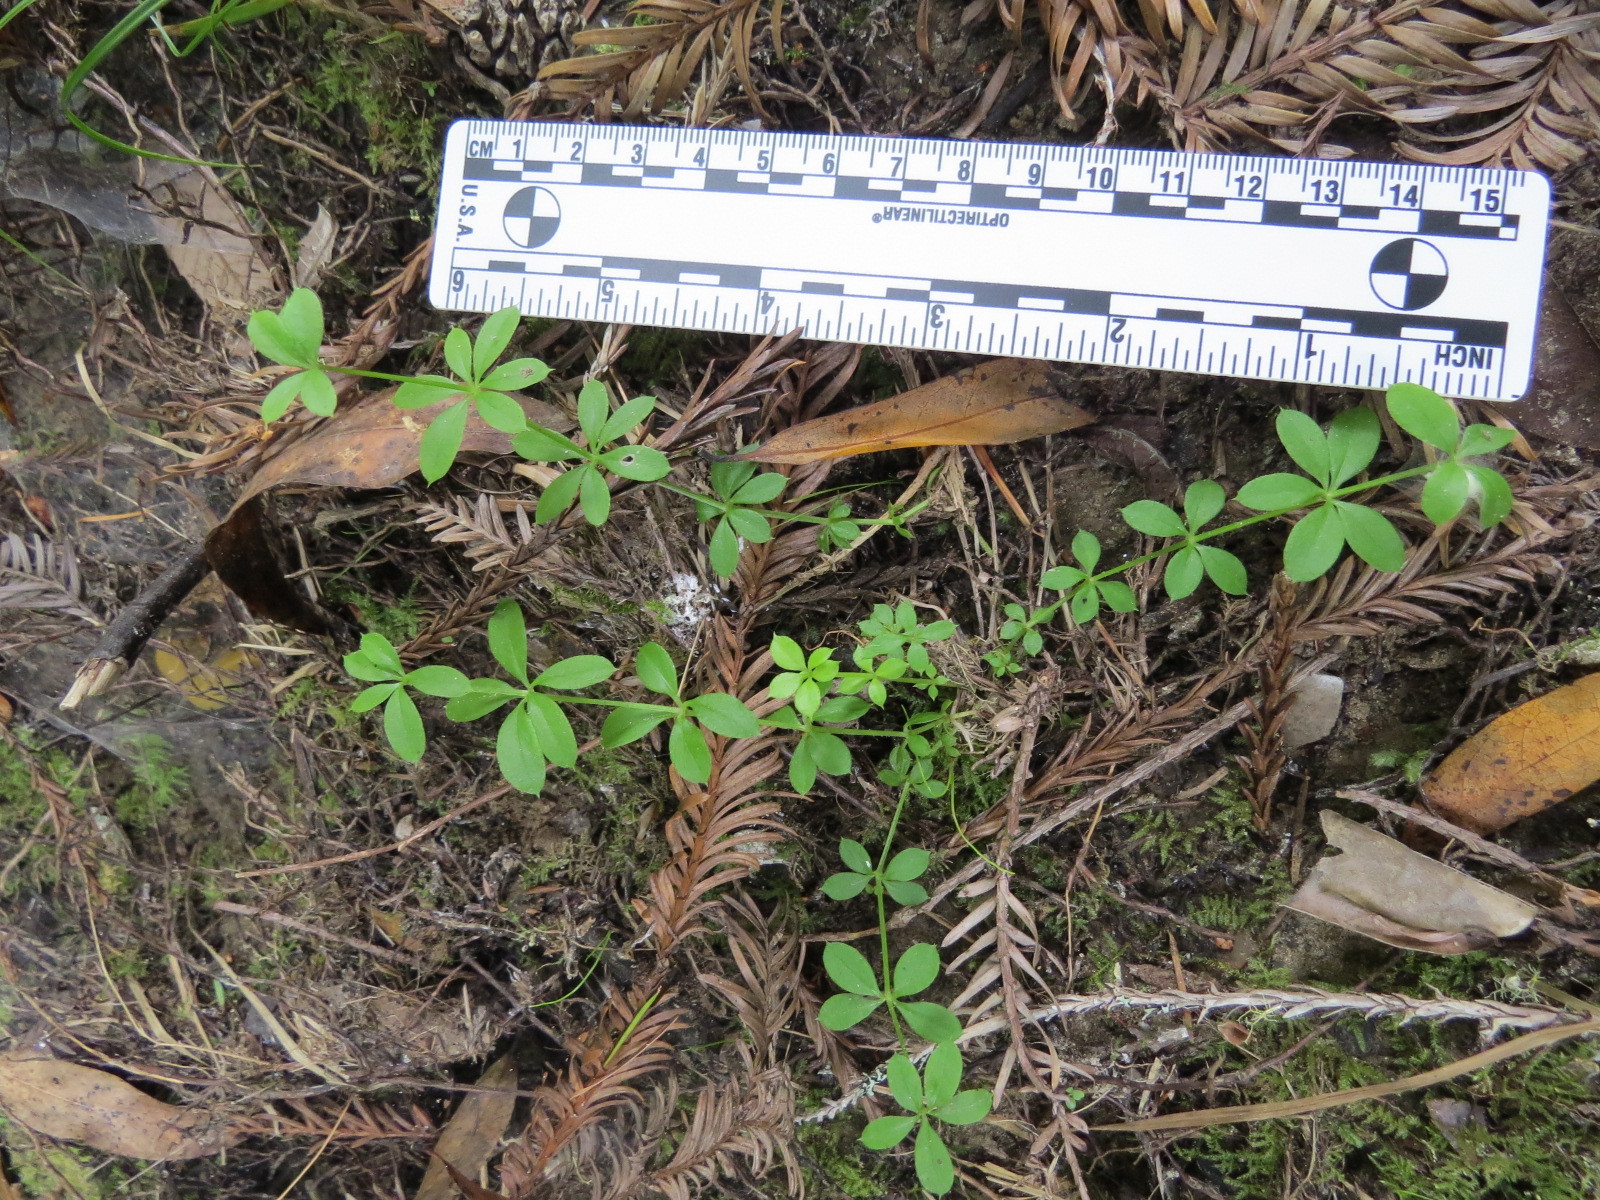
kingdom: Plantae
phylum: Tracheophyta
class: Magnoliopsida
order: Gentianales
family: Rubiaceae
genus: Galium
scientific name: Galium triflorum
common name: Fragrant bedstraw
